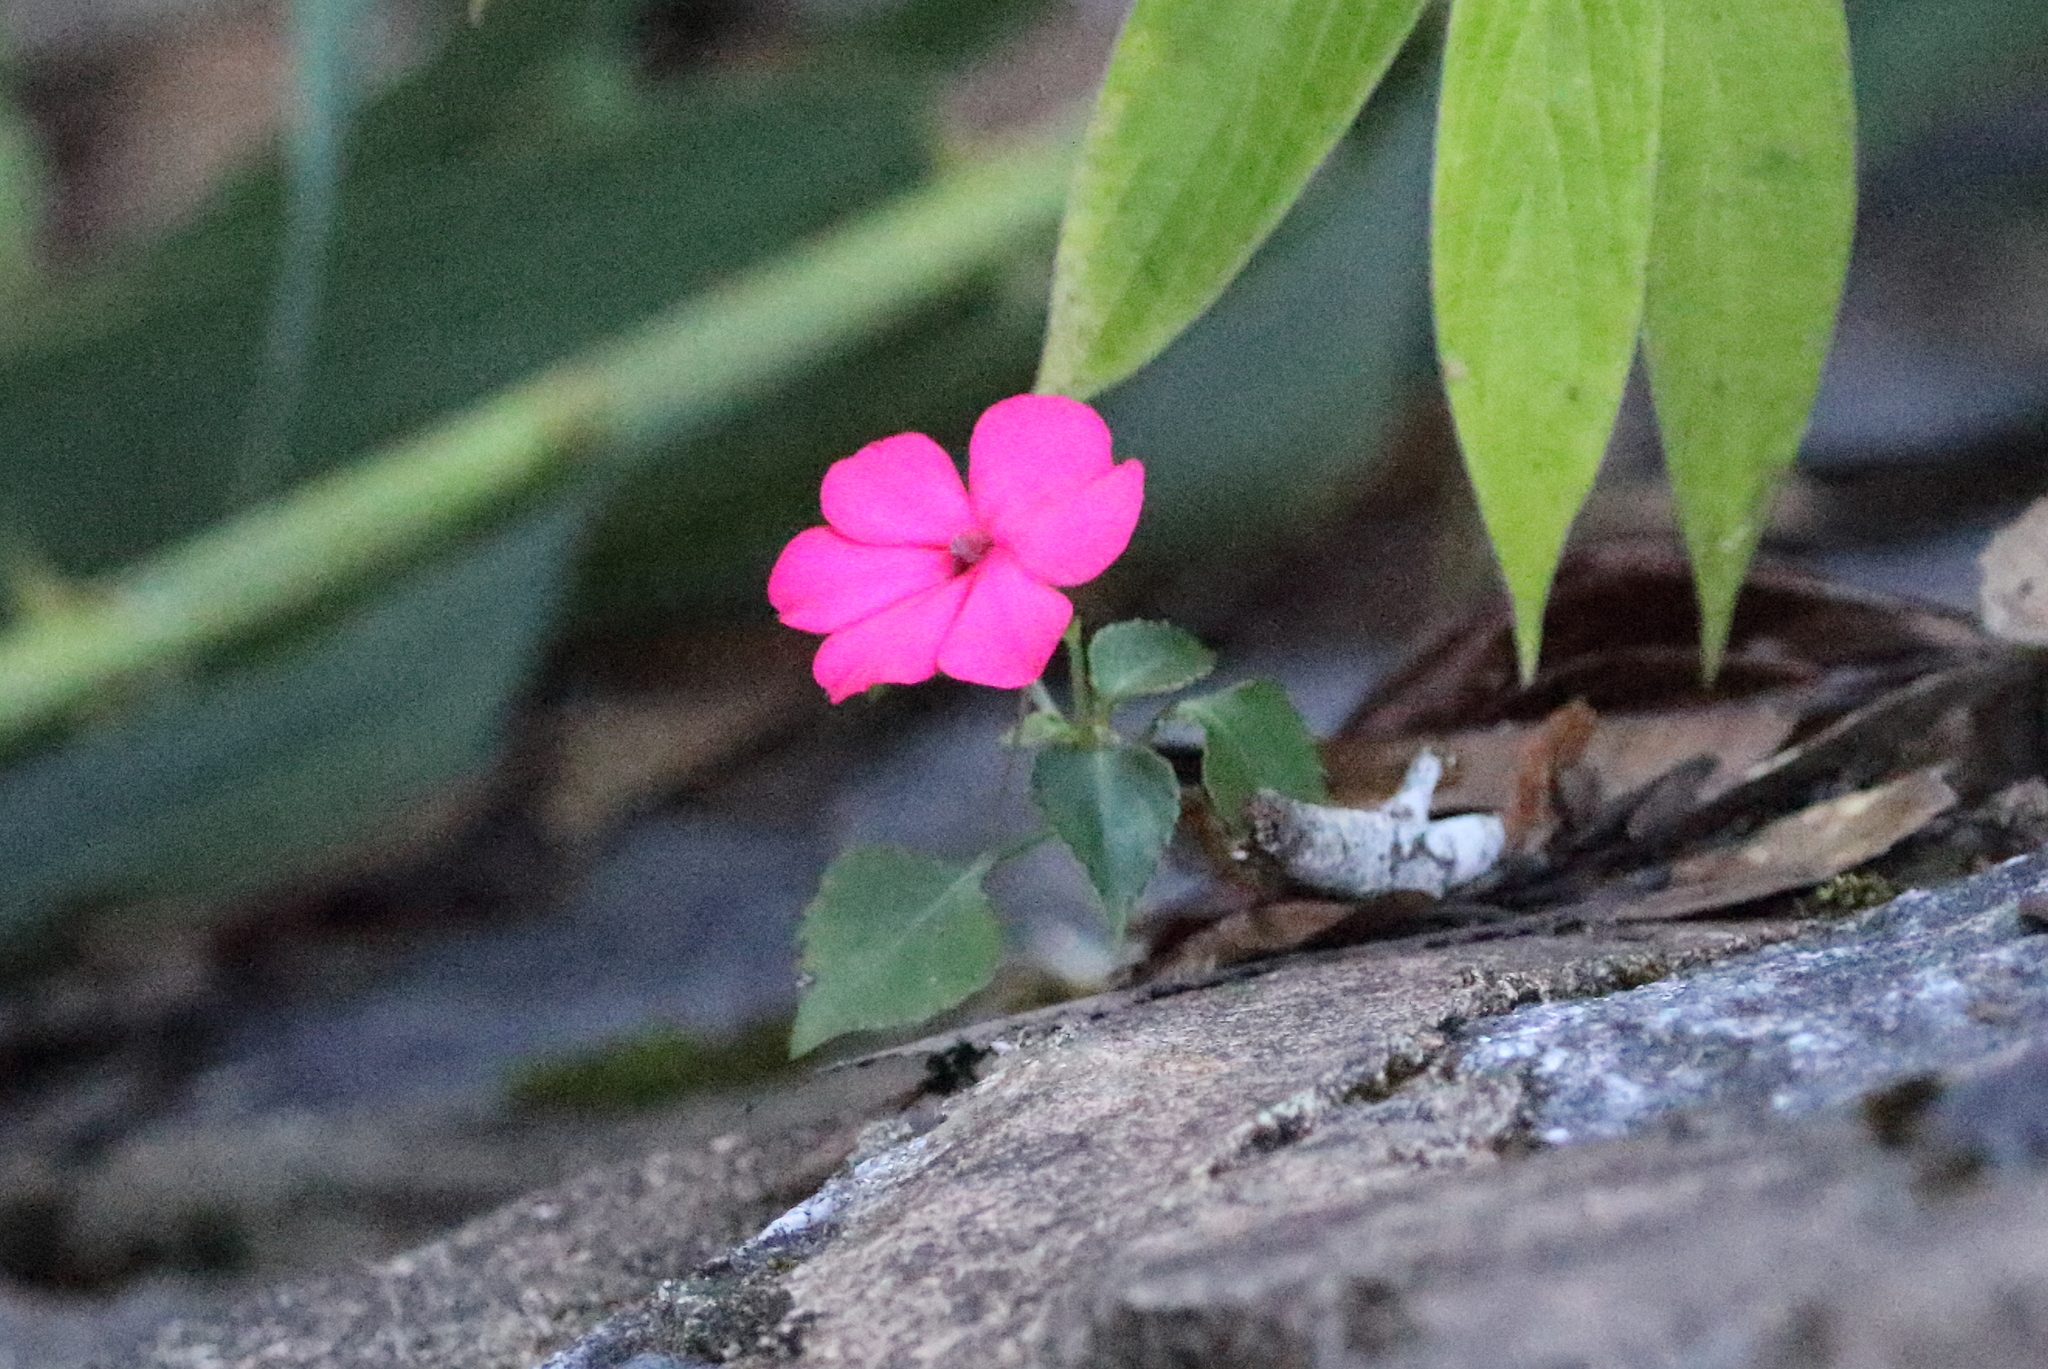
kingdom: Plantae
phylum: Tracheophyta
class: Magnoliopsida
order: Ericales
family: Balsaminaceae
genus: Impatiens
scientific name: Impatiens walleriana
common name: Buzzy lizzy
